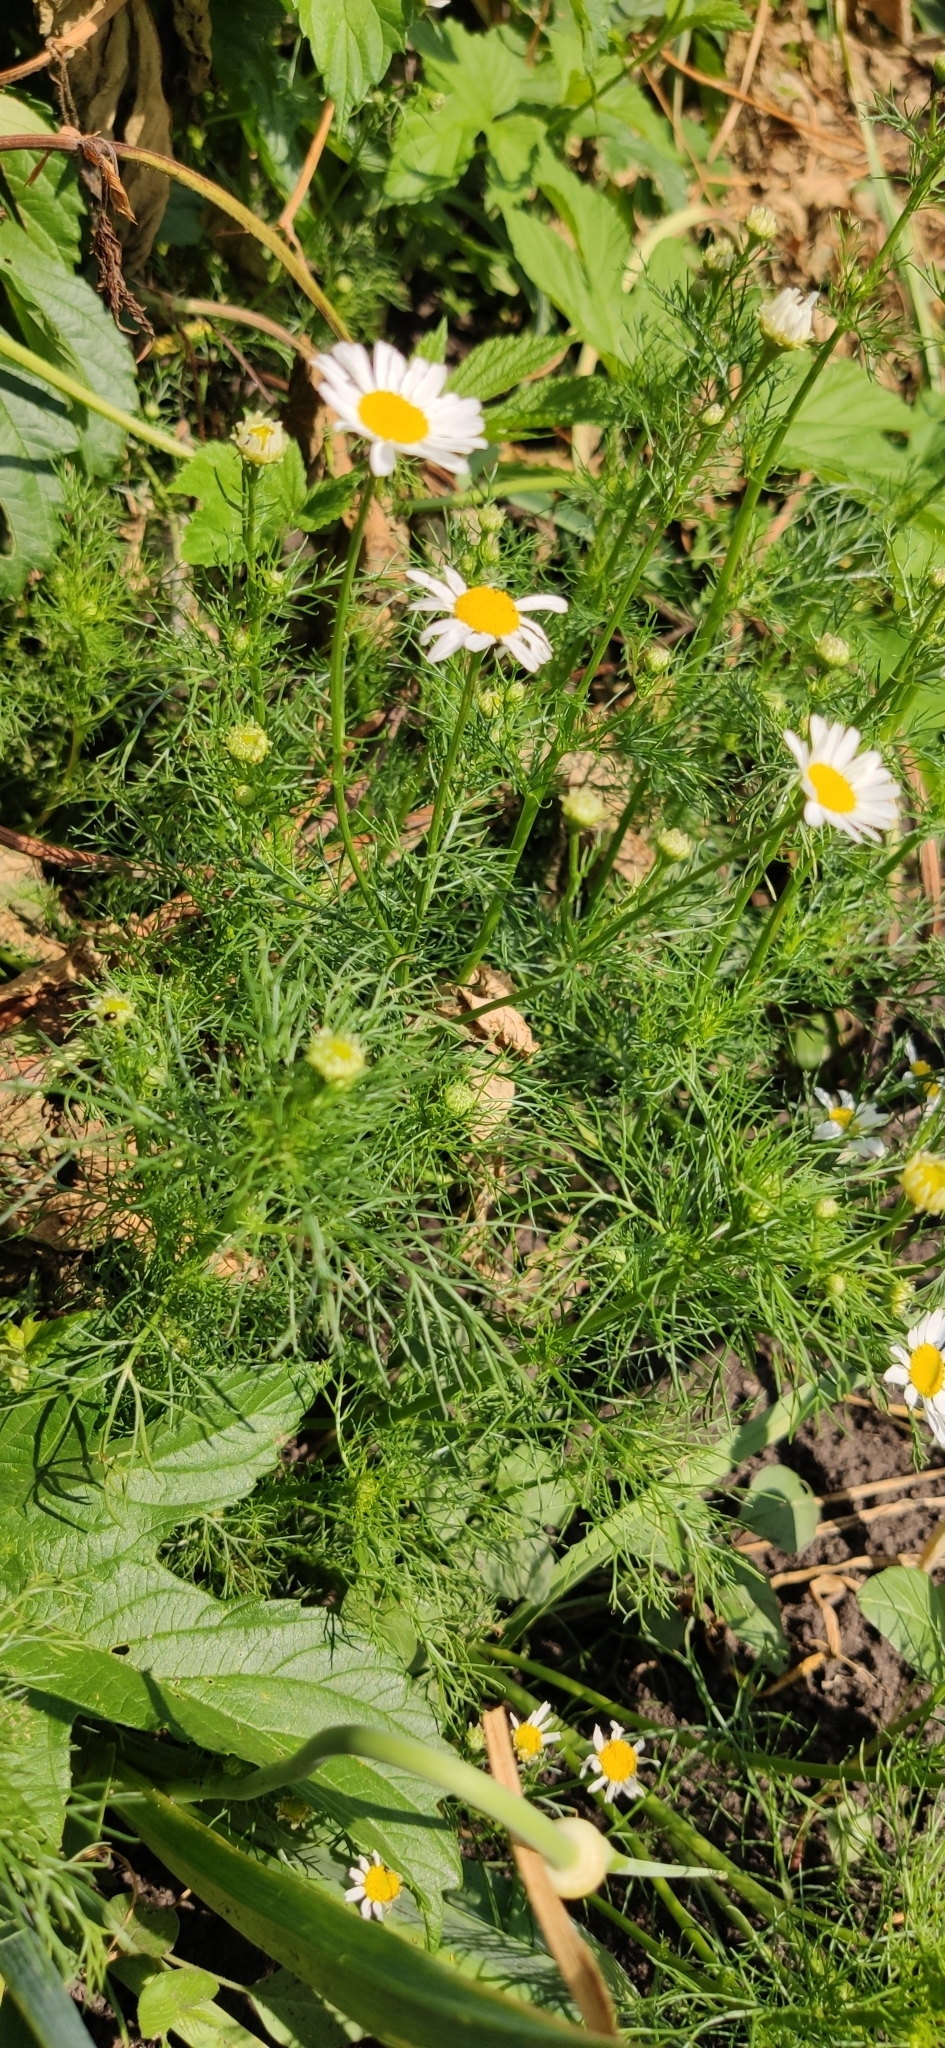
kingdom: Plantae
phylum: Tracheophyta
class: Magnoliopsida
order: Asterales
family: Asteraceae
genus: Tripleurospermum
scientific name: Tripleurospermum inodorum
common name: Scentless mayweed
